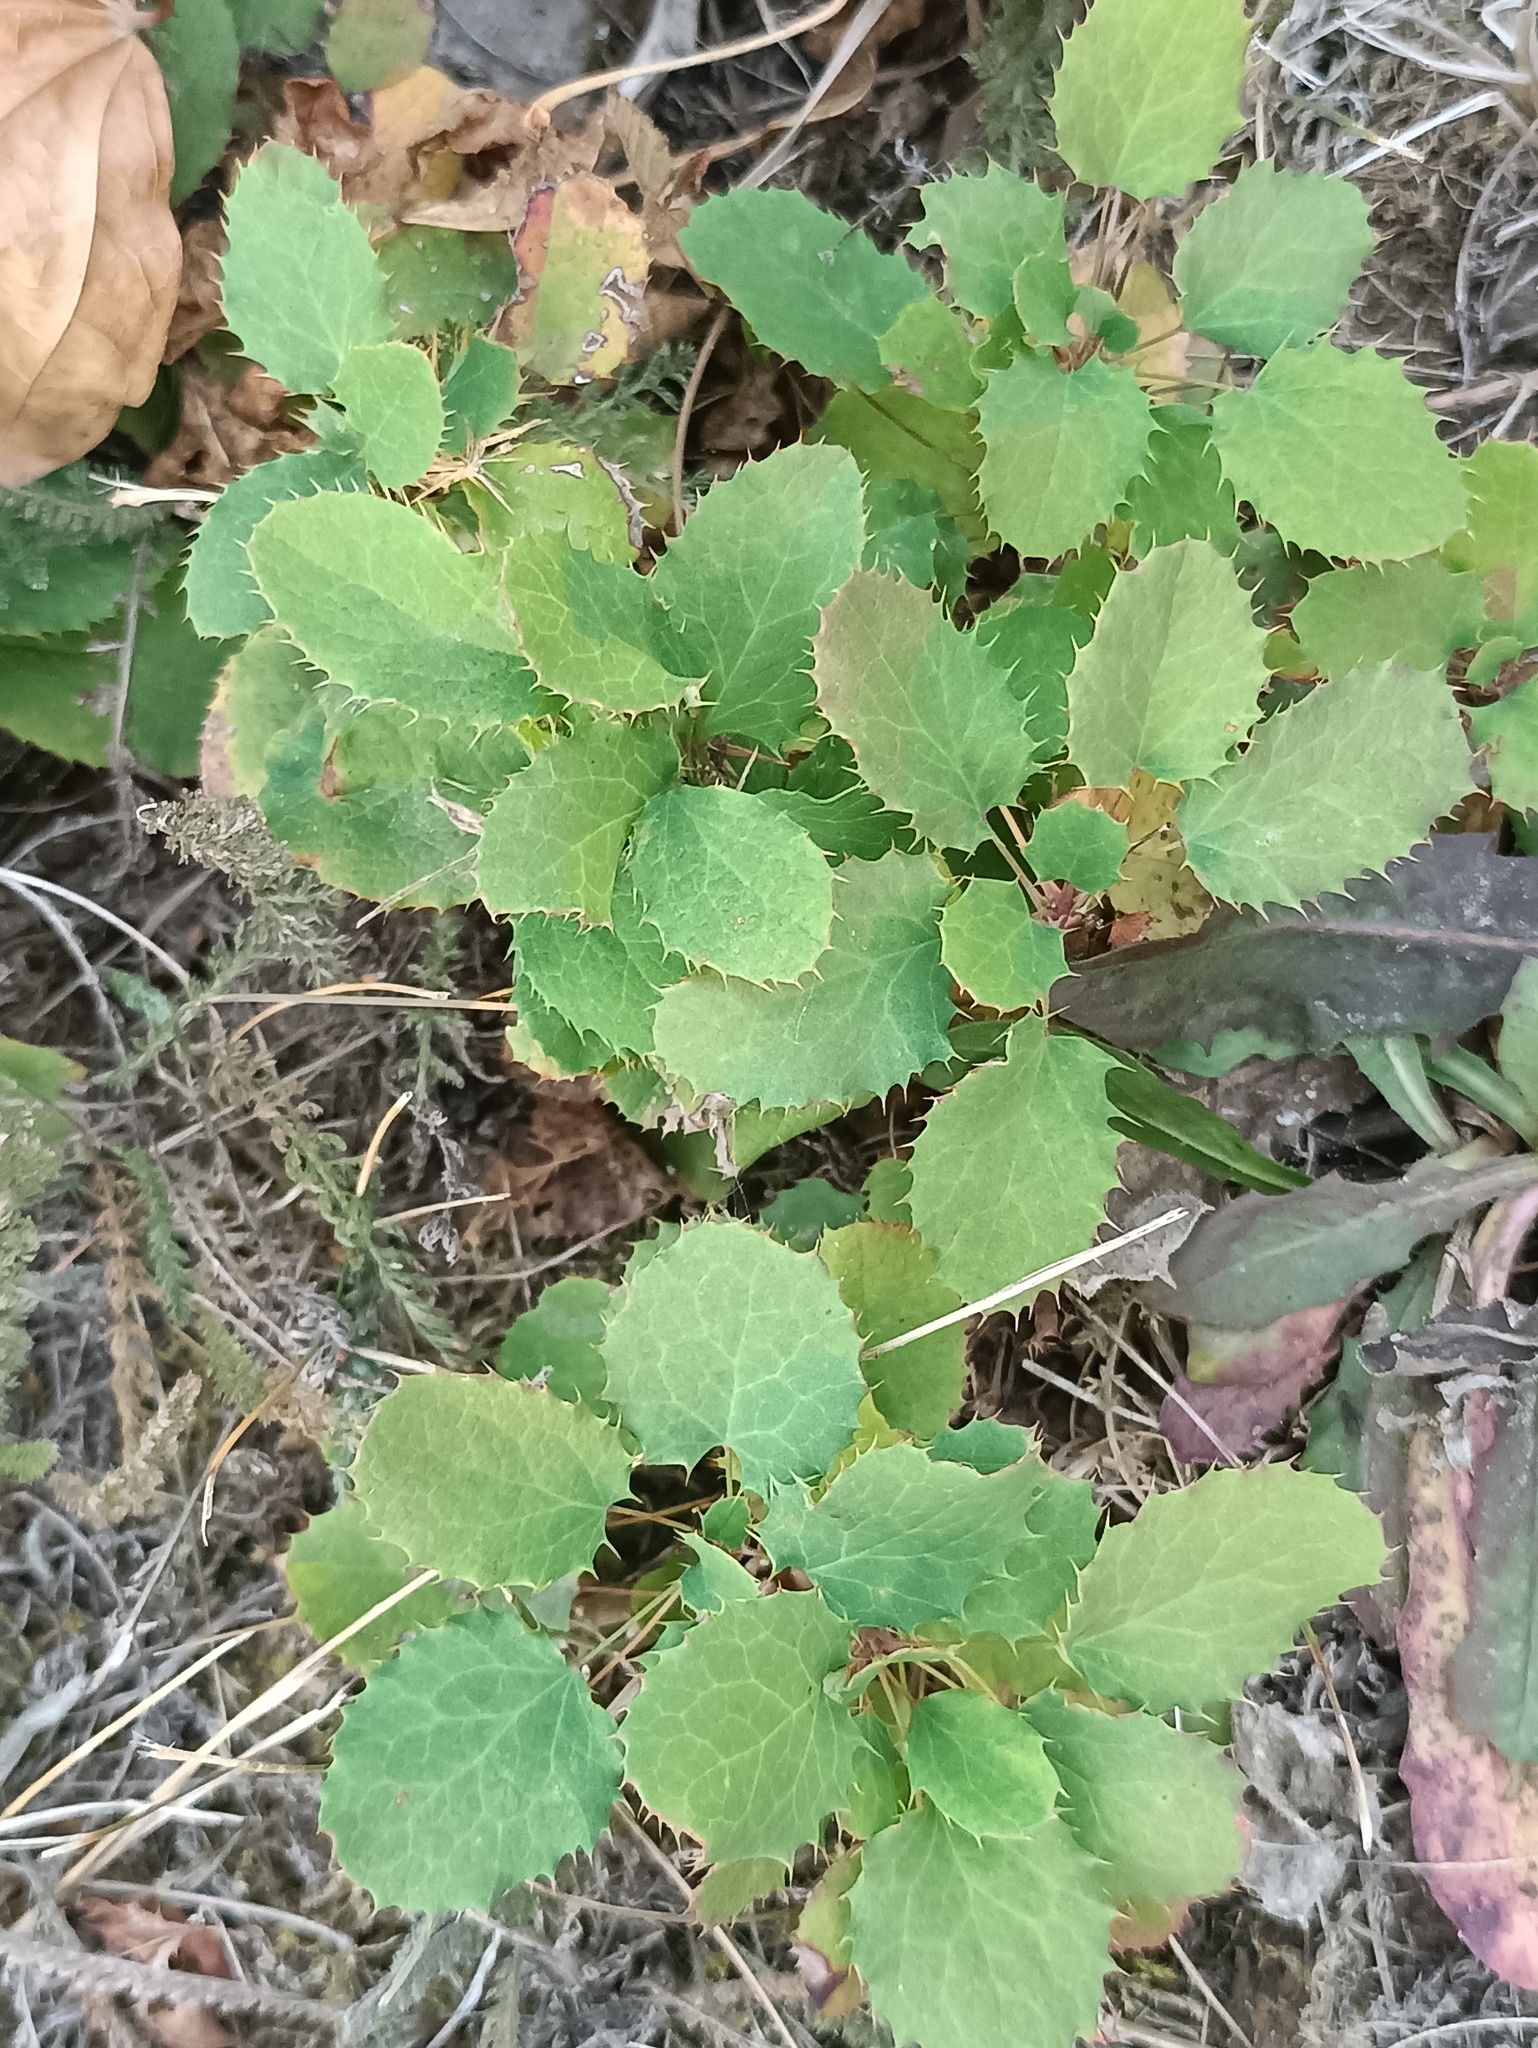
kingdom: Plantae
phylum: Tracheophyta
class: Magnoliopsida
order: Ranunculales
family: Berberidaceae
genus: Berberis
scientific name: Berberis vulgaris
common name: Barberry
